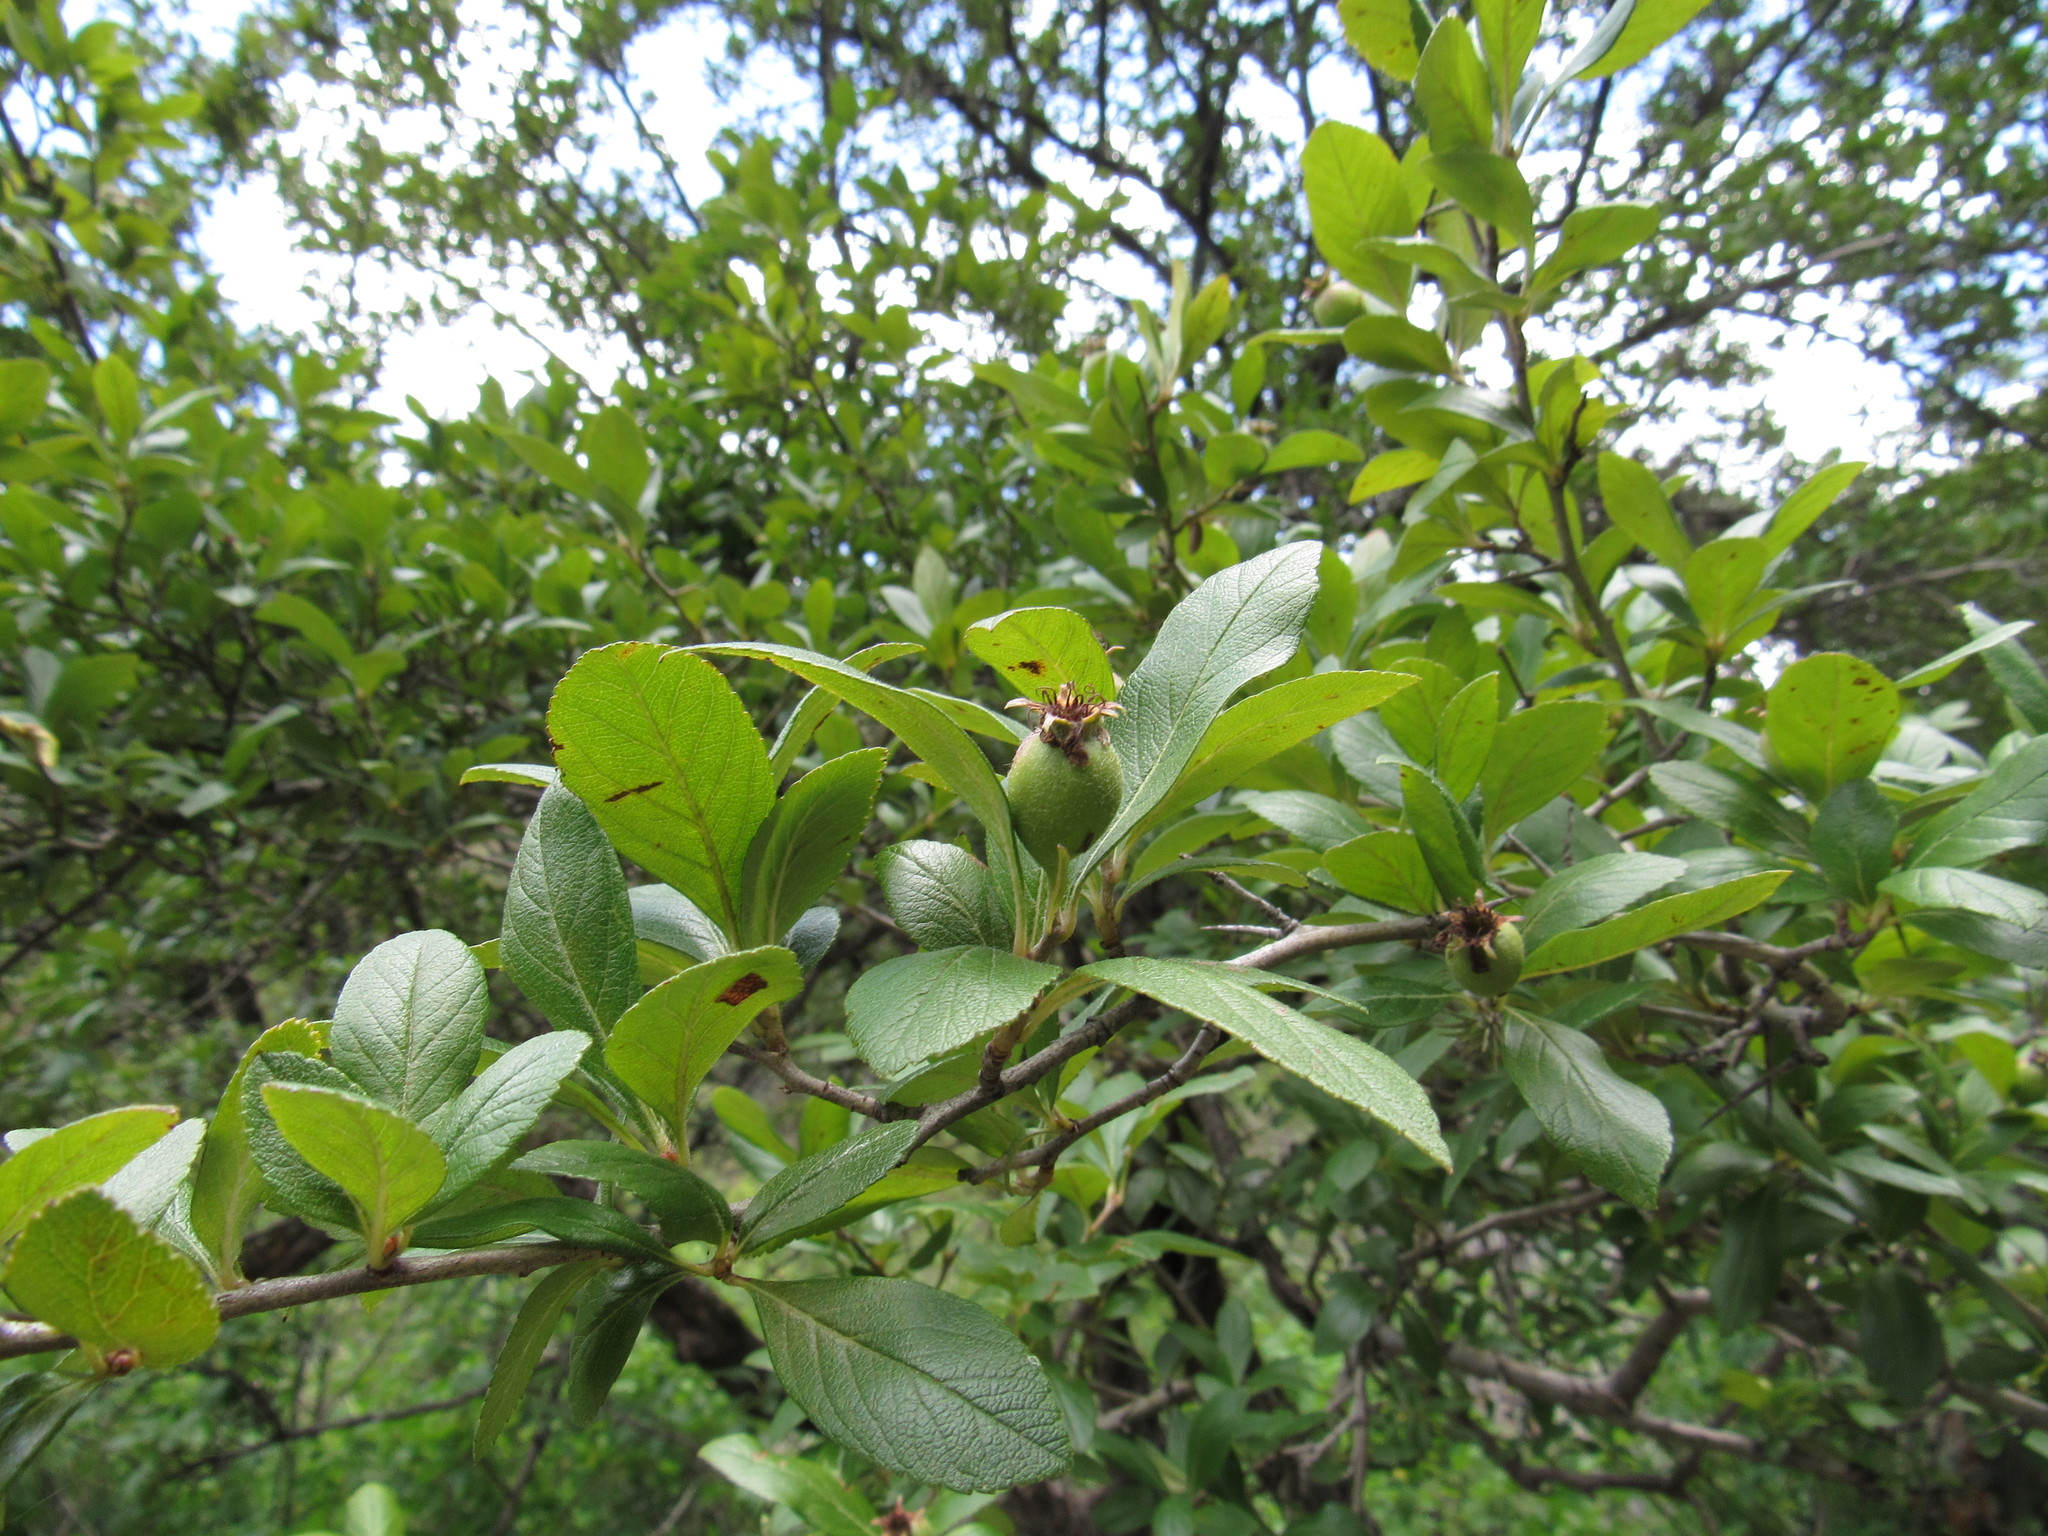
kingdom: Plantae
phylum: Tracheophyta
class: Magnoliopsida
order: Rosales
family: Rosaceae
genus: Crataegus
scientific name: Crataegus mexicana
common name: Mexican hawthorn
